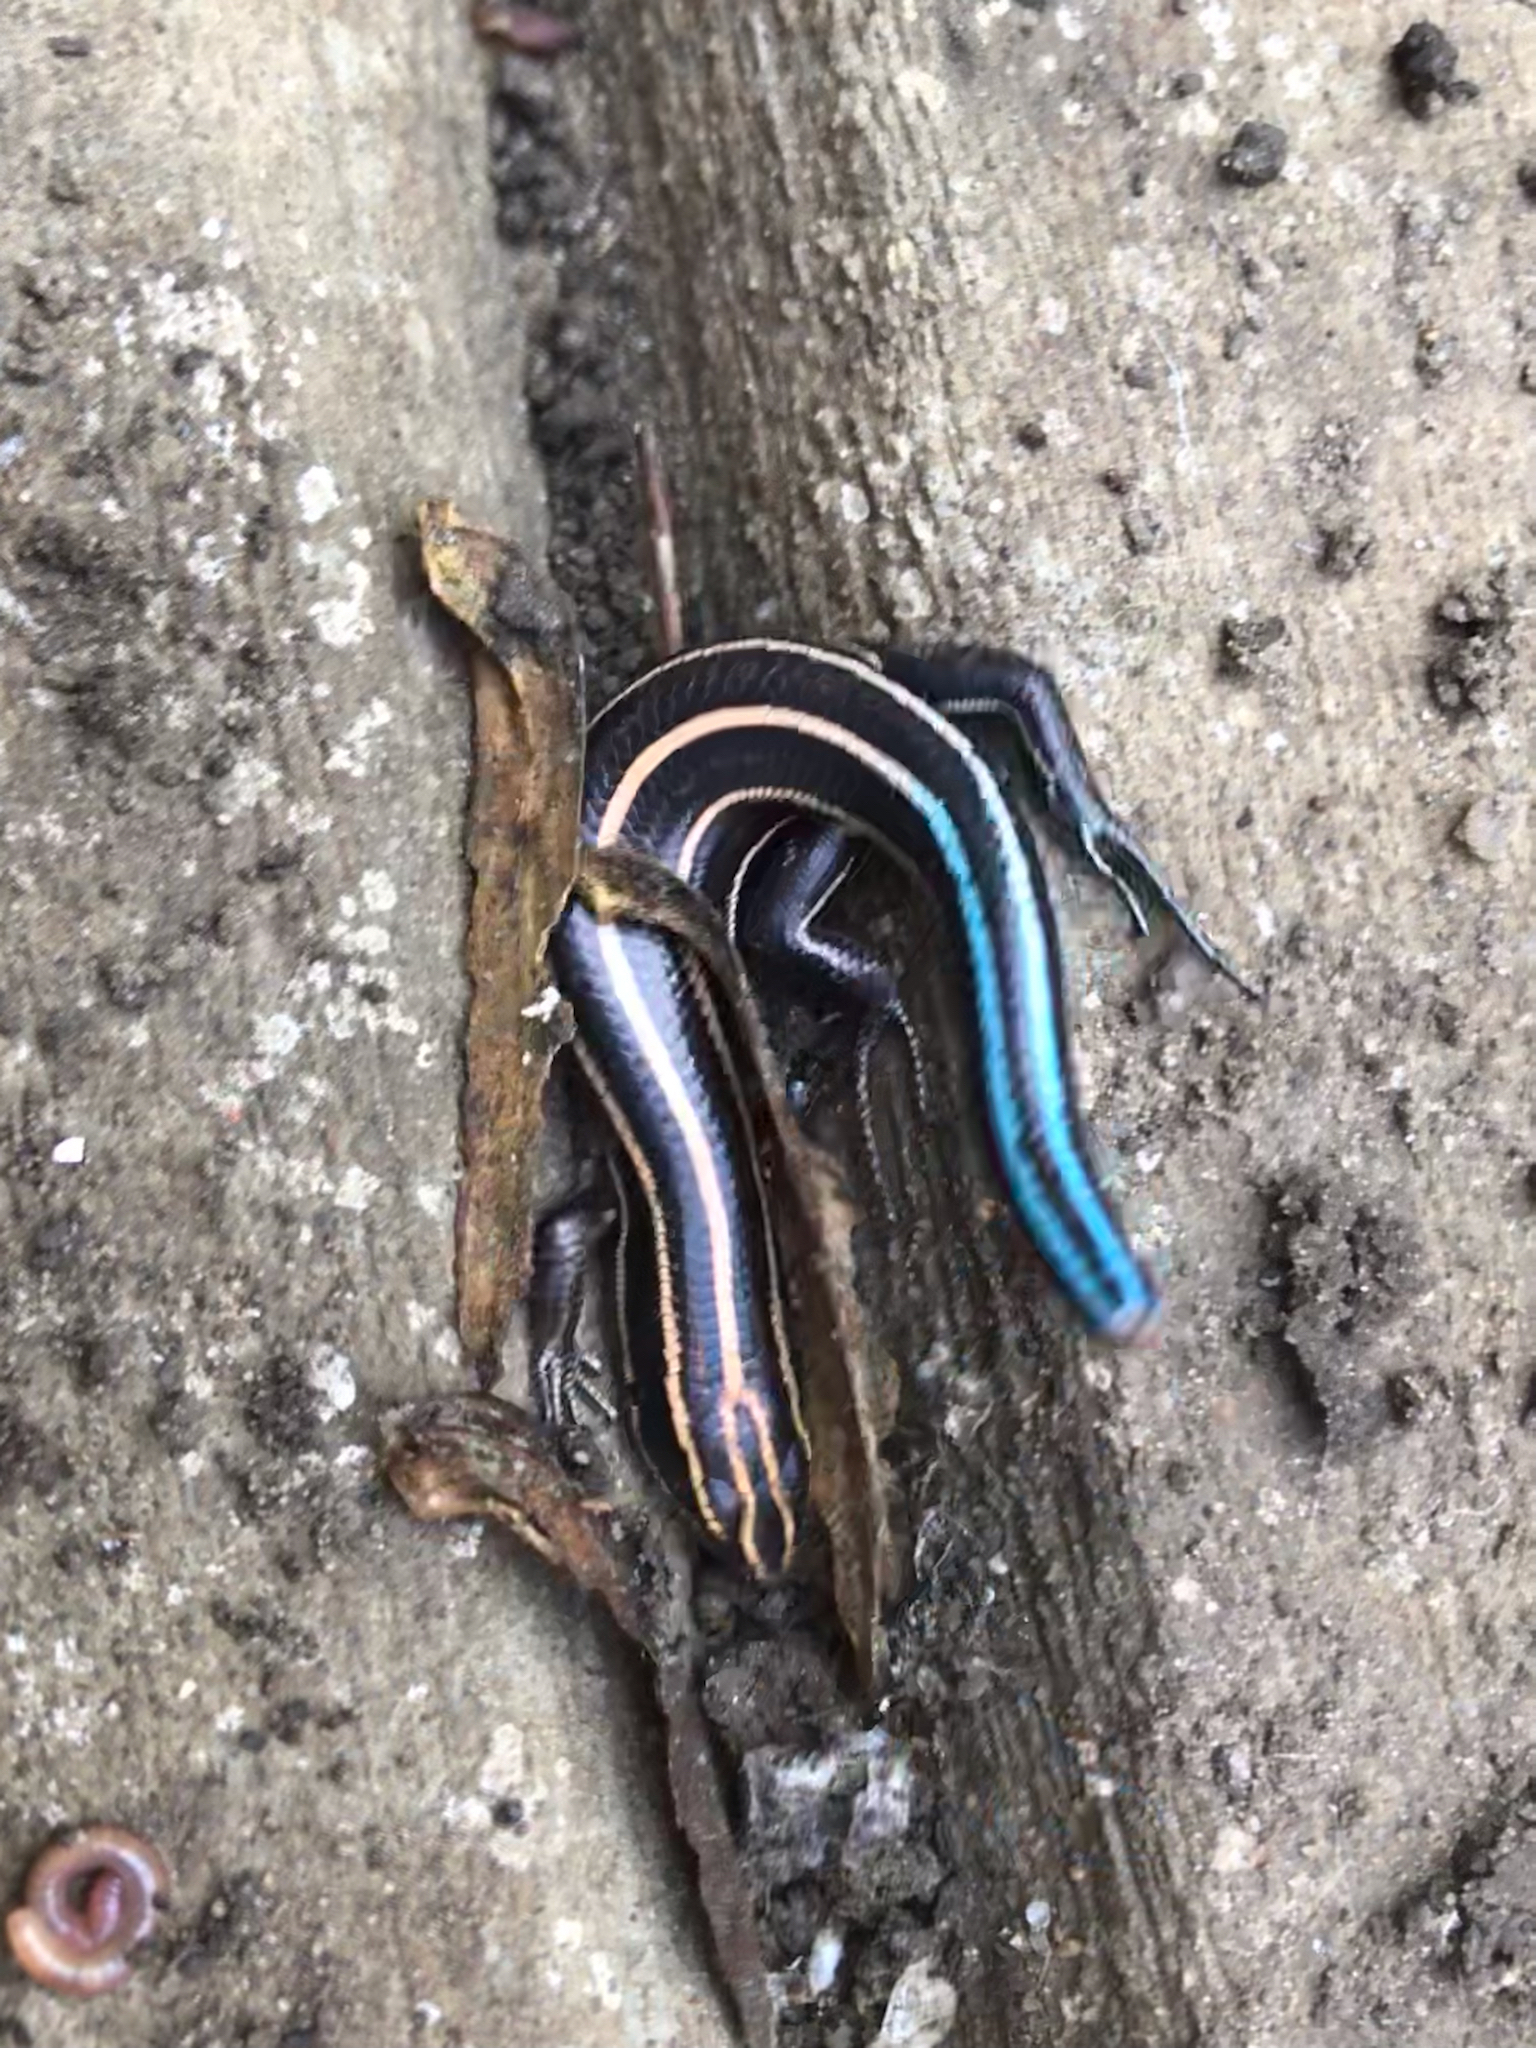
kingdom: Animalia
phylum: Chordata
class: Squamata
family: Scincidae
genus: Plestiodon
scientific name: Plestiodon fasciatus
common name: Five-lined skink
